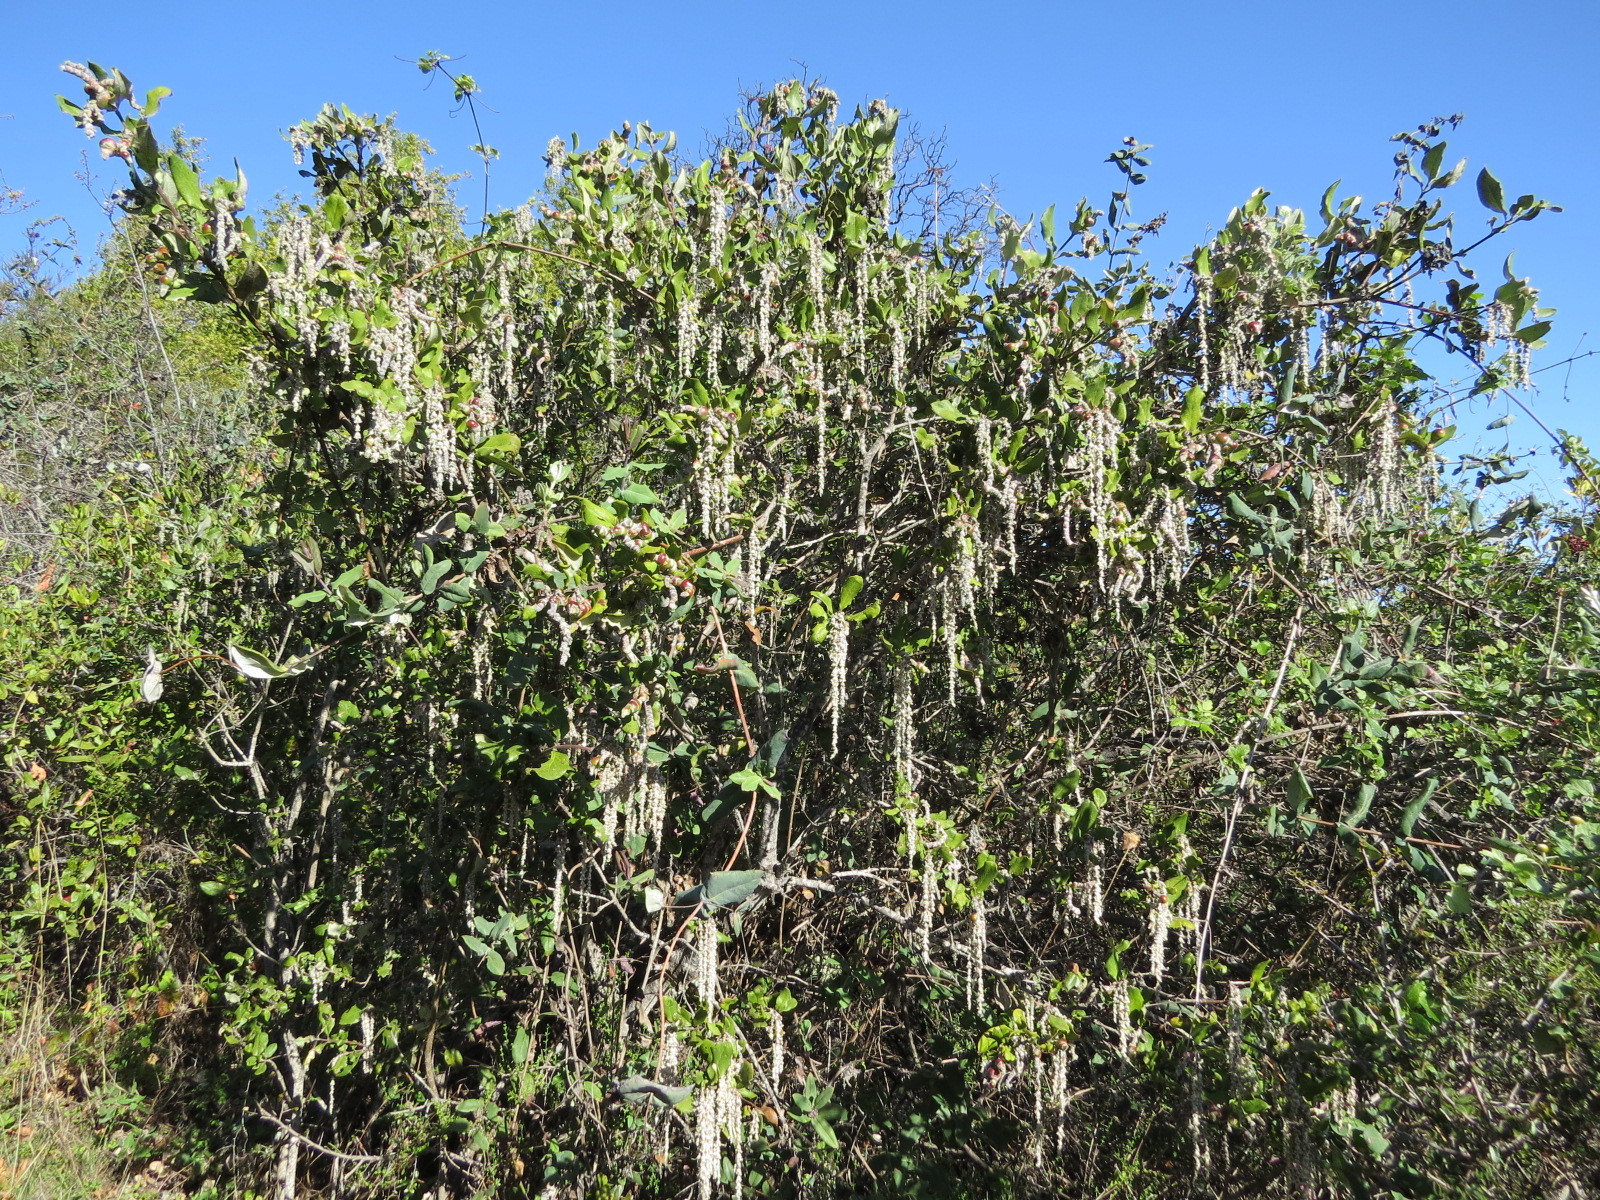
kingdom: Plantae
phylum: Tracheophyta
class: Magnoliopsida
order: Garryales
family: Garryaceae
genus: Garrya
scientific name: Garrya elliptica
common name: Silk-tassel
